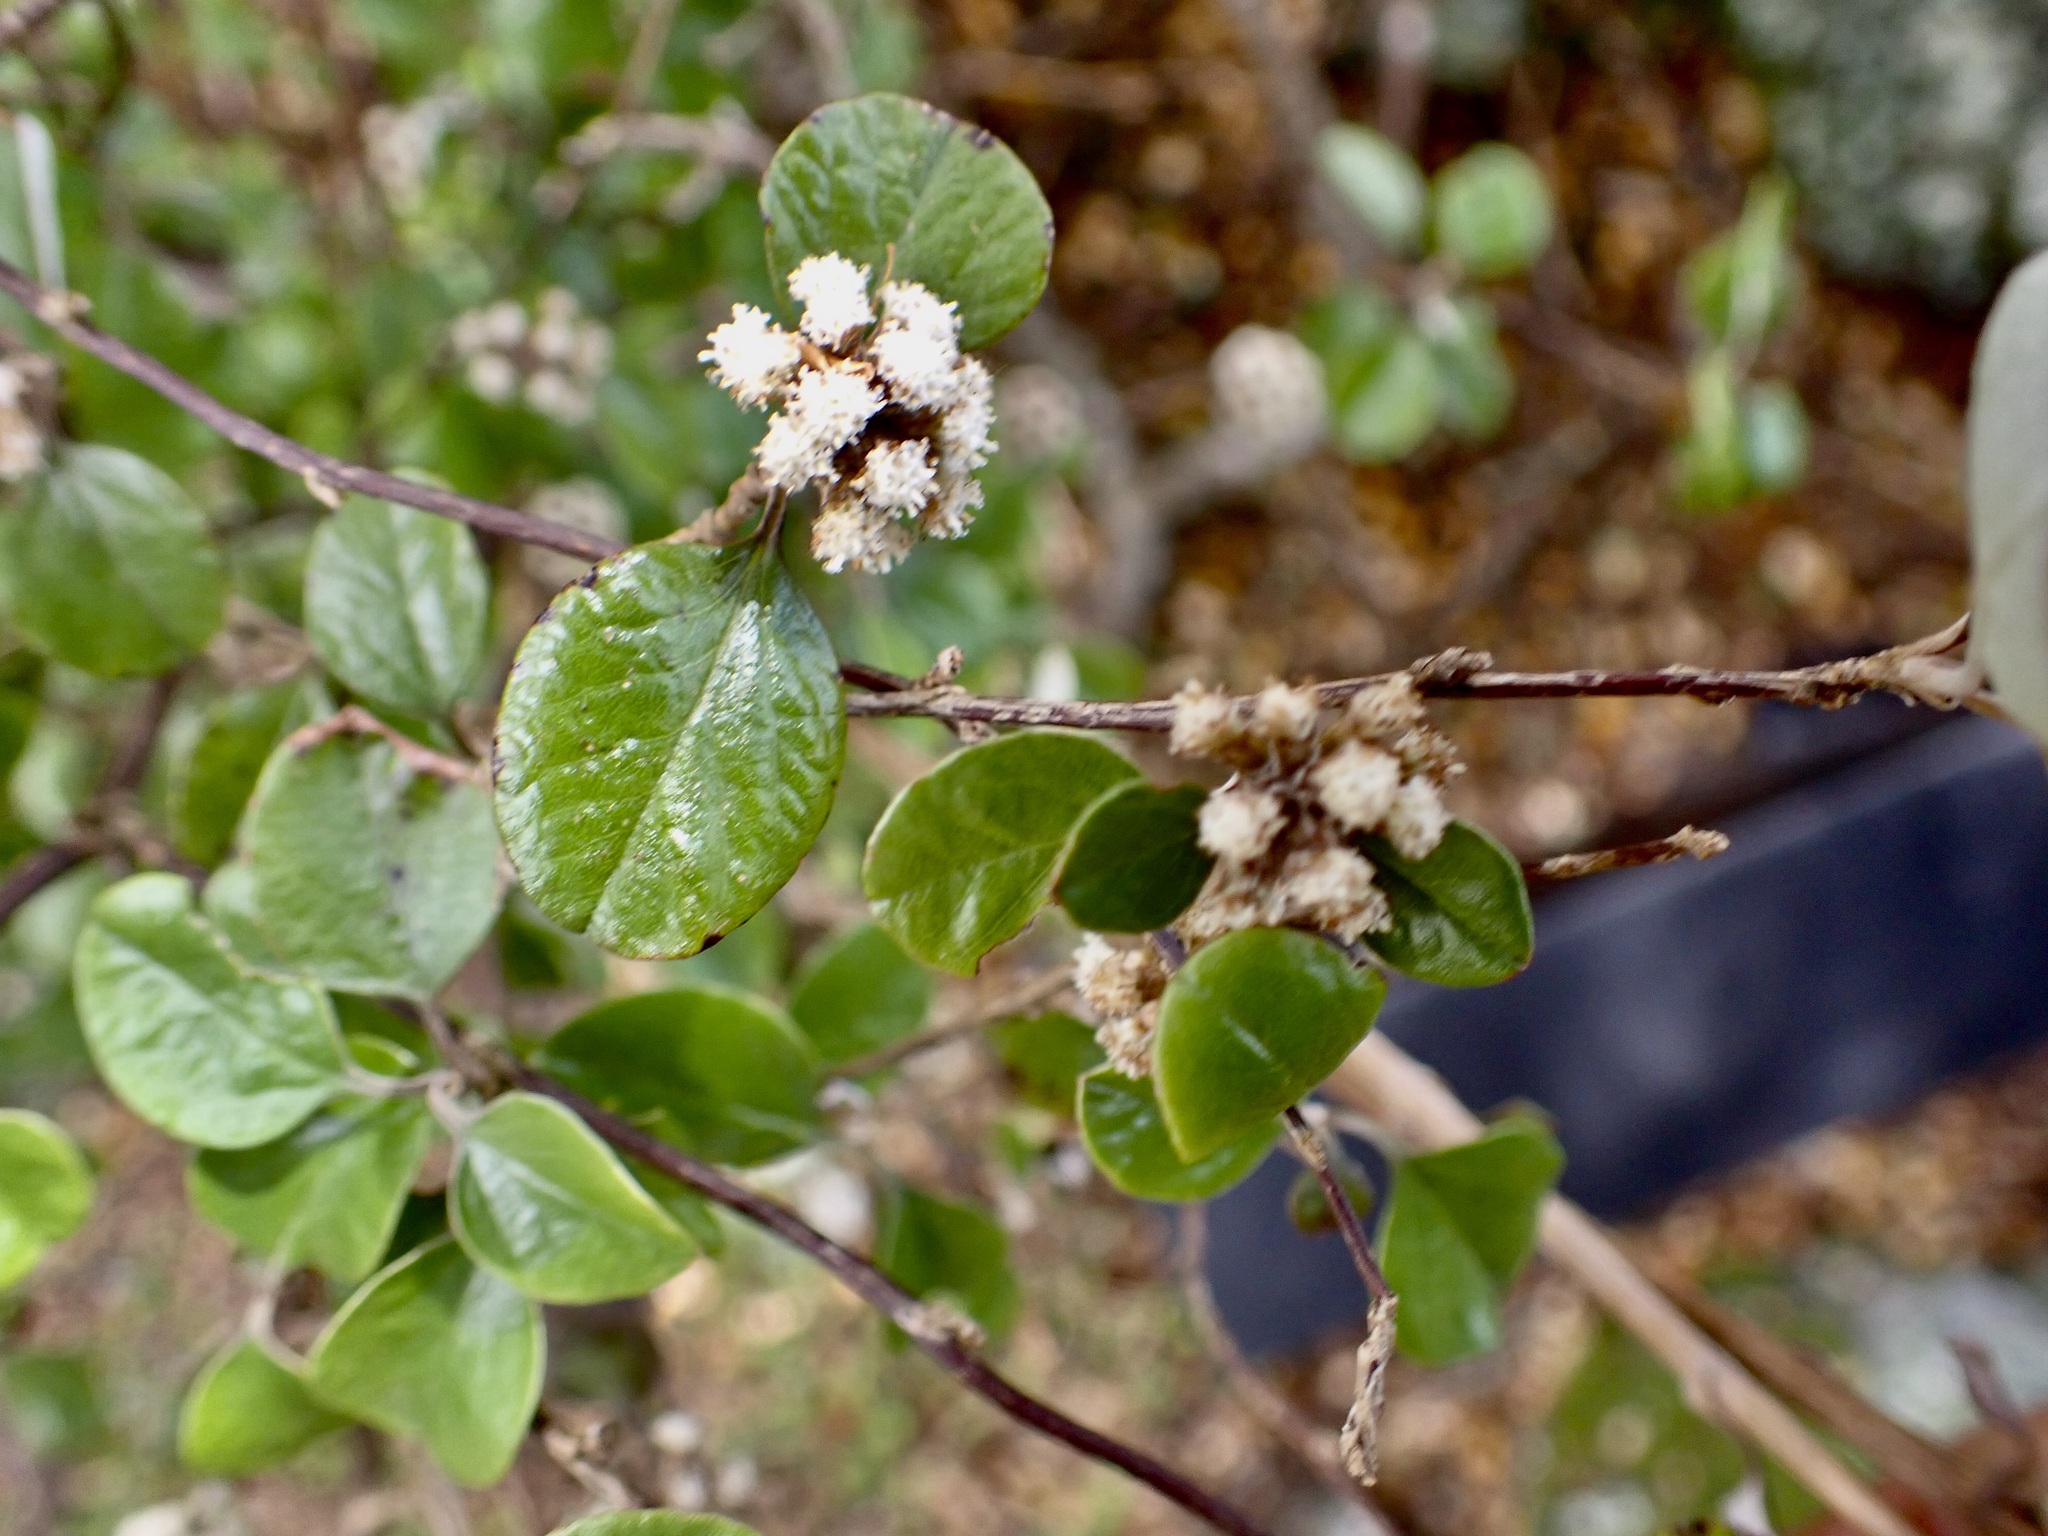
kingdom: Plantae
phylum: Tracheophyta
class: Magnoliopsida
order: Asterales
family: Asteraceae
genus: Ozothamnus
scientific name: Ozothamnus glomeratus
